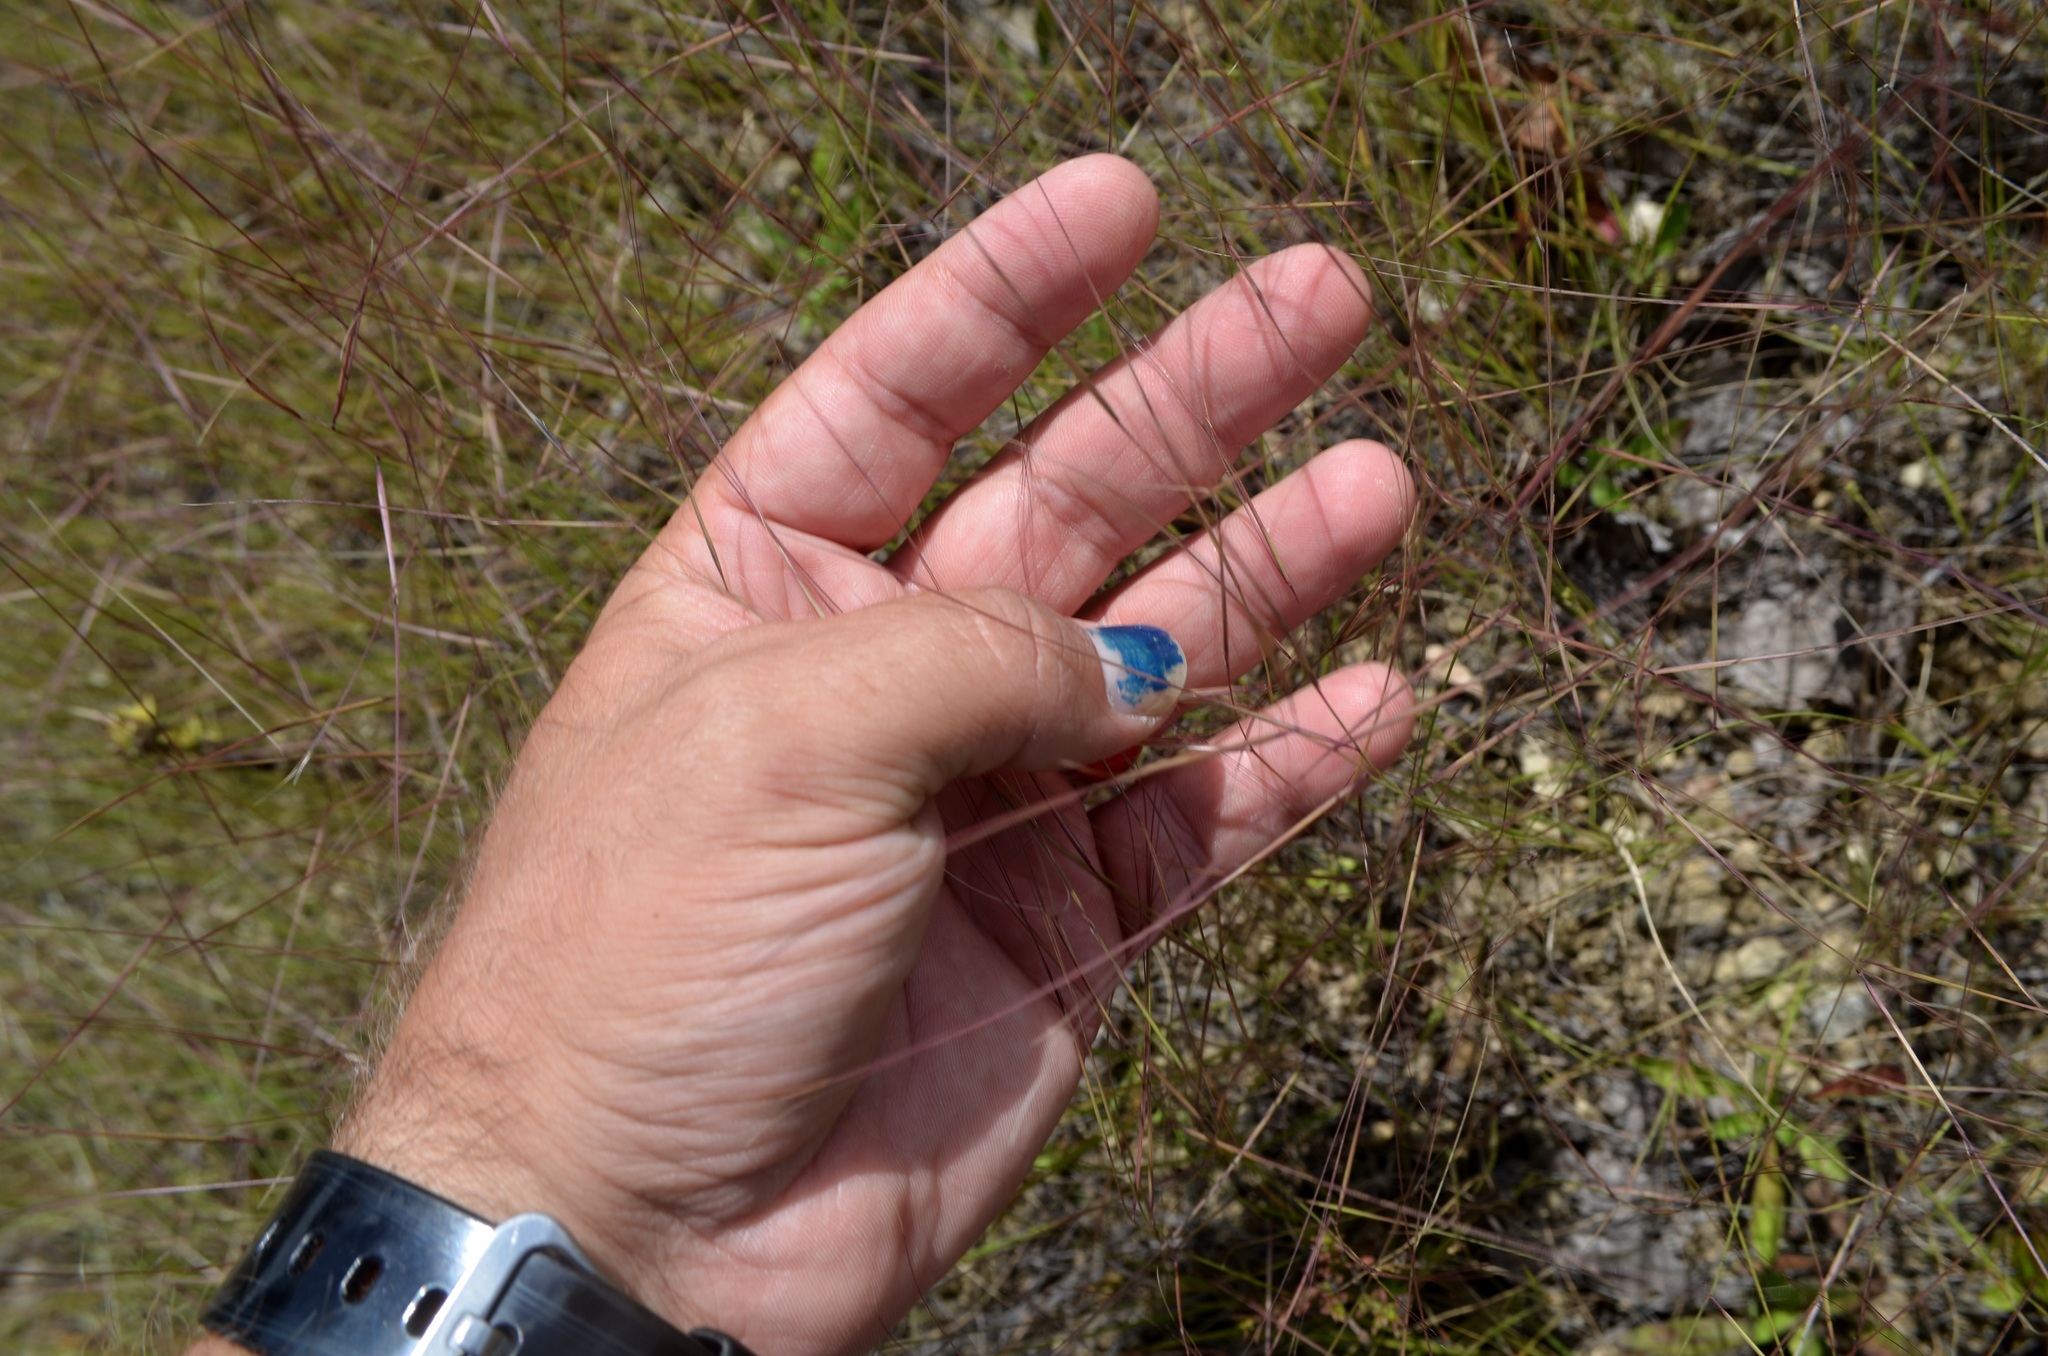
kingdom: Plantae
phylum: Tracheophyta
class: Liliopsida
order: Poales
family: Poaceae
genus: Aristida
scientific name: Aristida oligantha
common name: Few-flowered aristida
